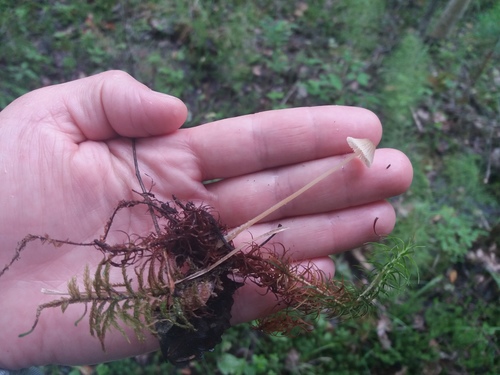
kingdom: Fungi
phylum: Basidiomycota
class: Agaricomycetes
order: Agaricales
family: Mycenaceae
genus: Hemimycena
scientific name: Hemimycena
